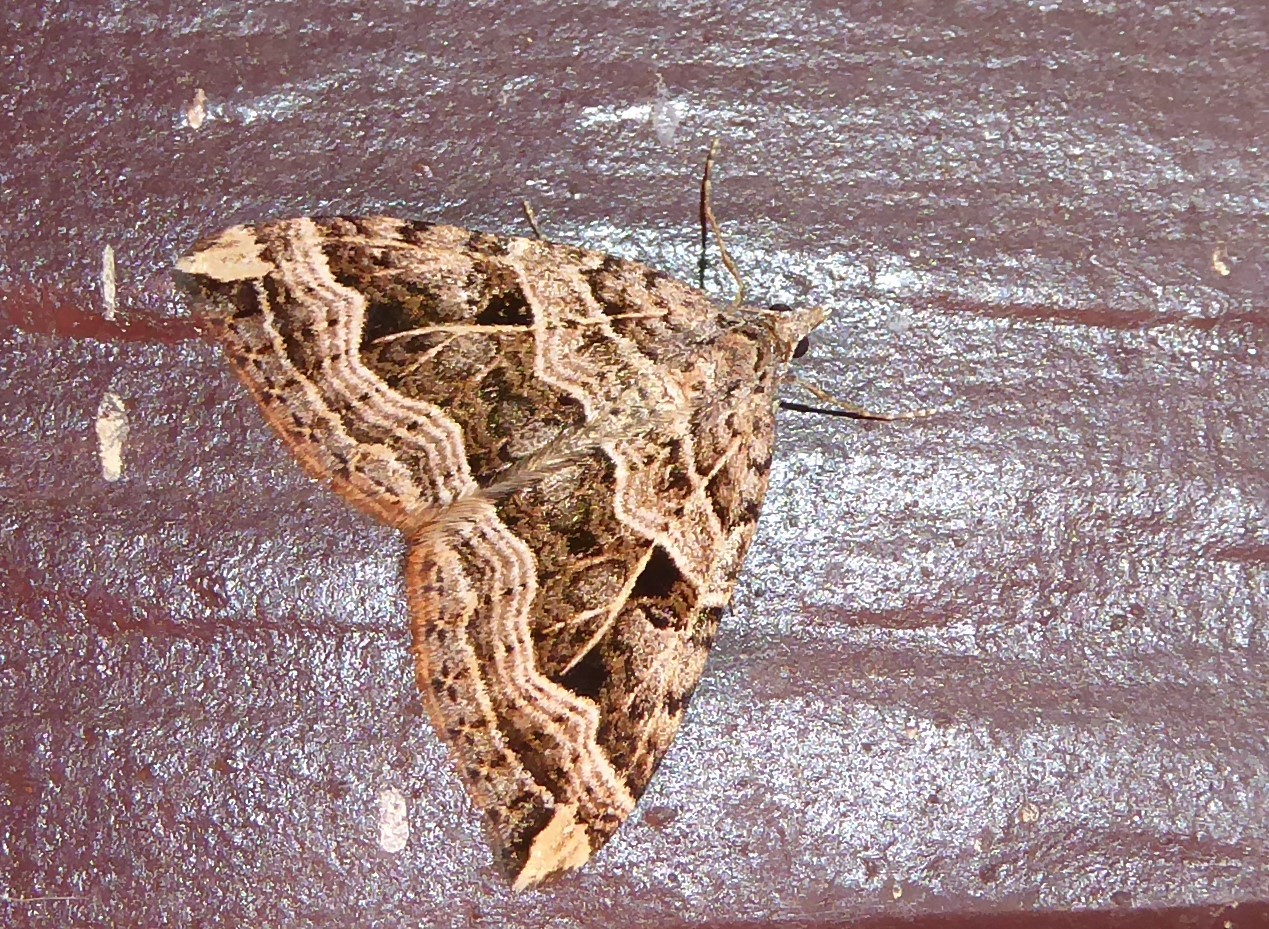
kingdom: Animalia
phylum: Arthropoda
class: Insecta
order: Lepidoptera
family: Geometridae
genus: Xanthorhoe
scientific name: Xanthorhoe semifissata
